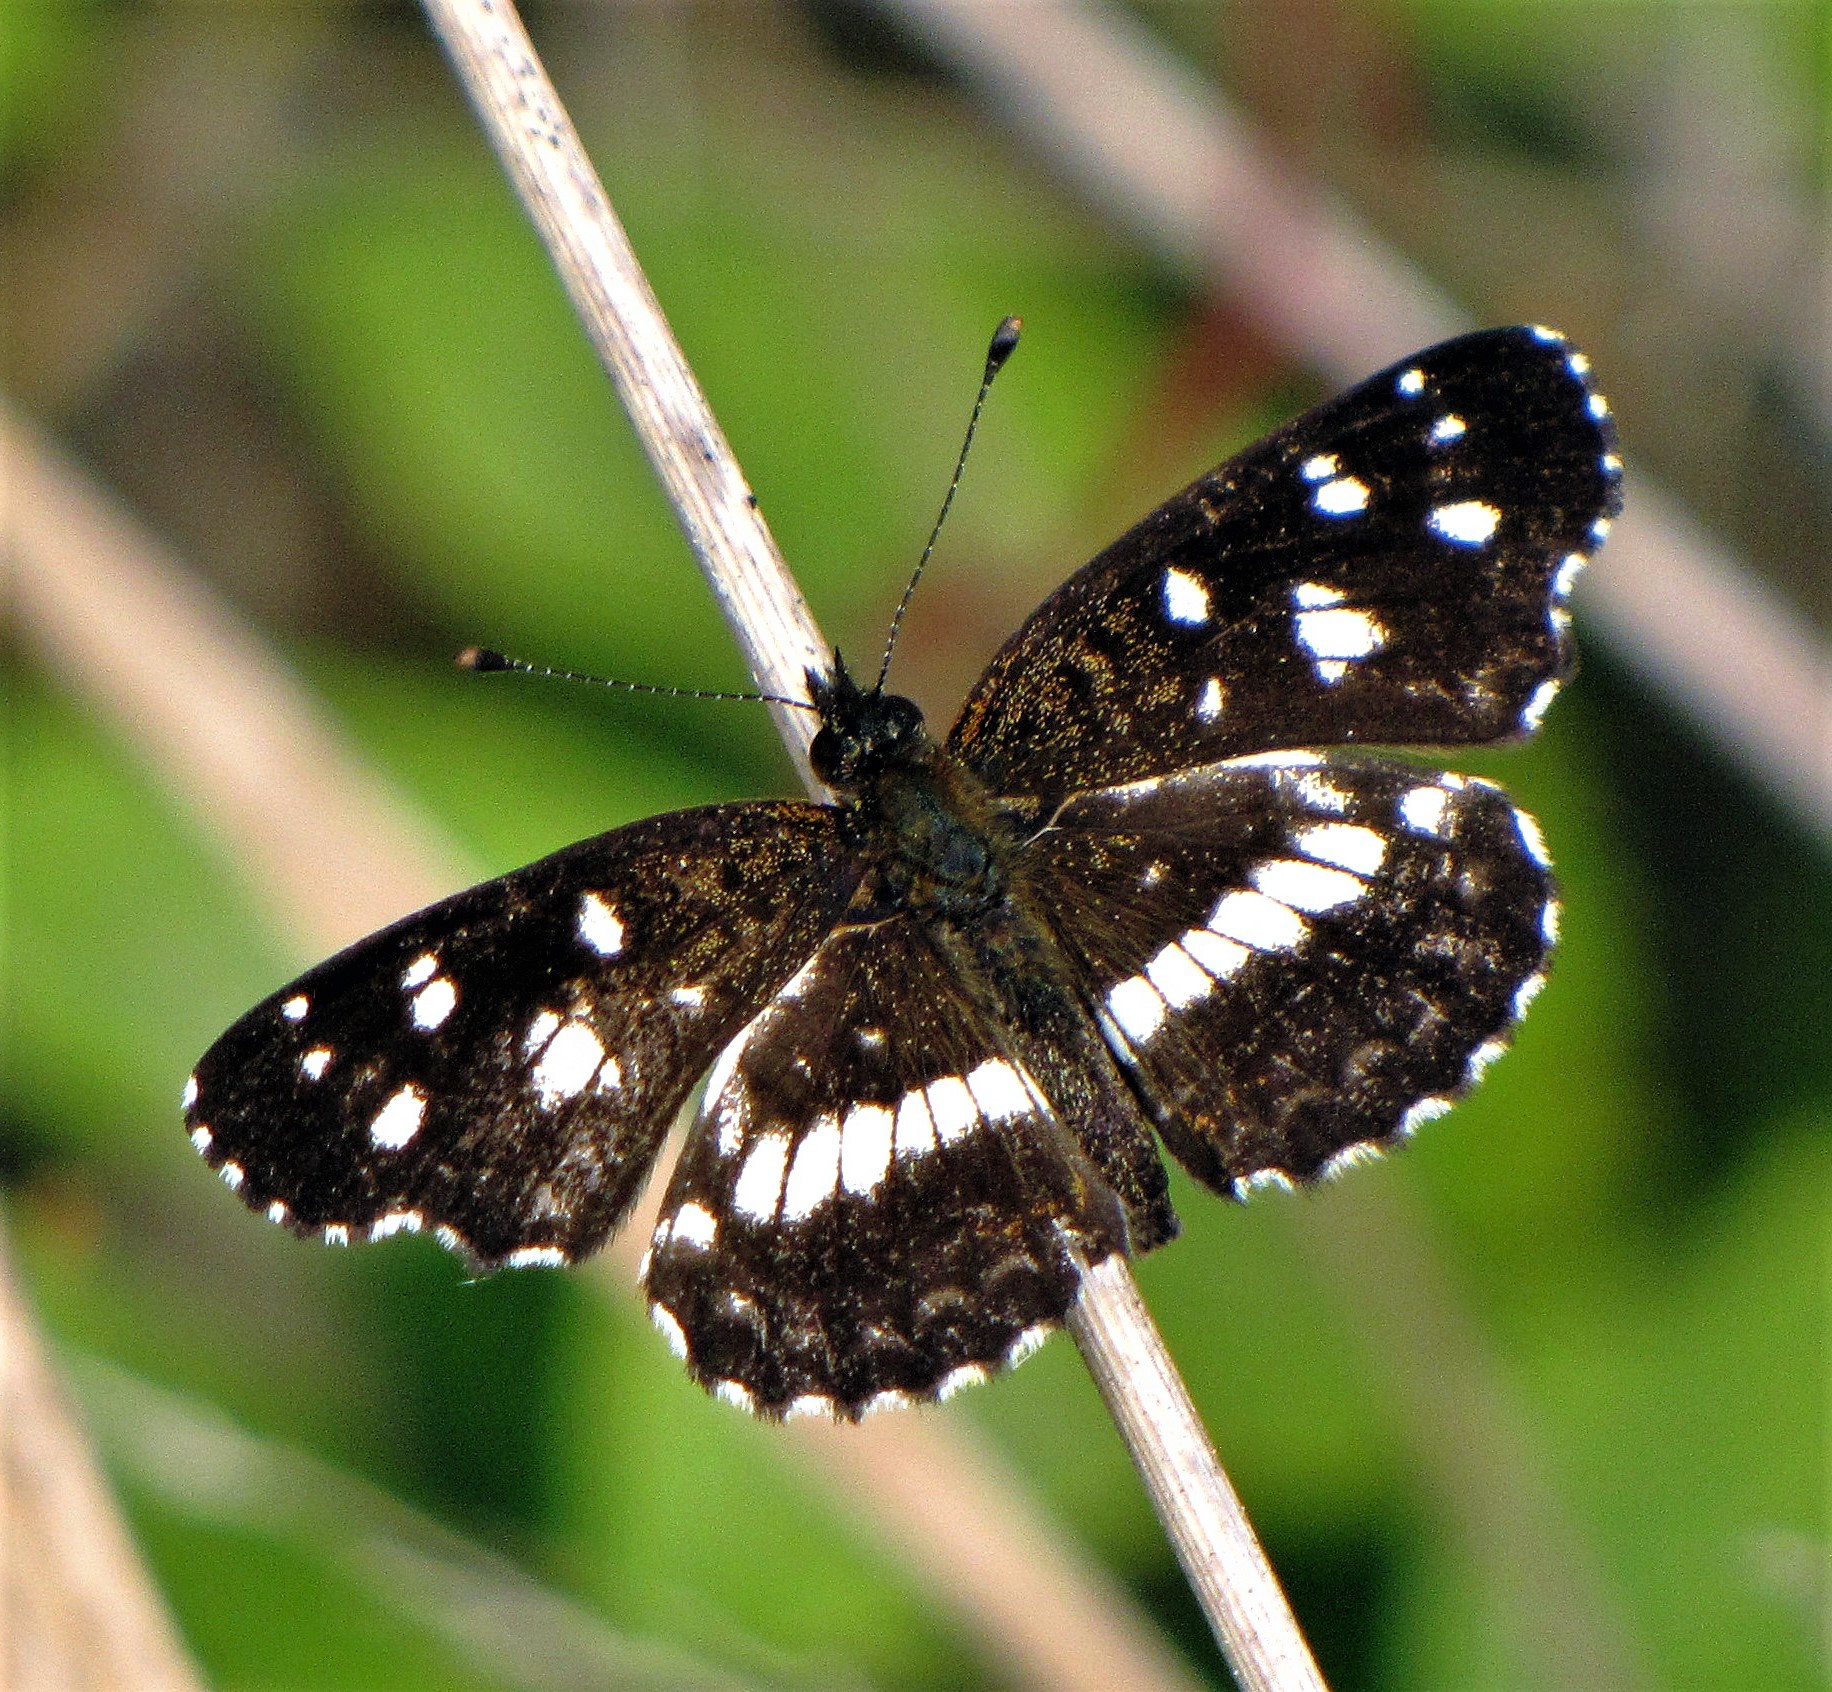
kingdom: Animalia
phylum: Arthropoda
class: Insecta
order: Lepidoptera
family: Nymphalidae
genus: Ortilia
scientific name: Ortilia ithra
